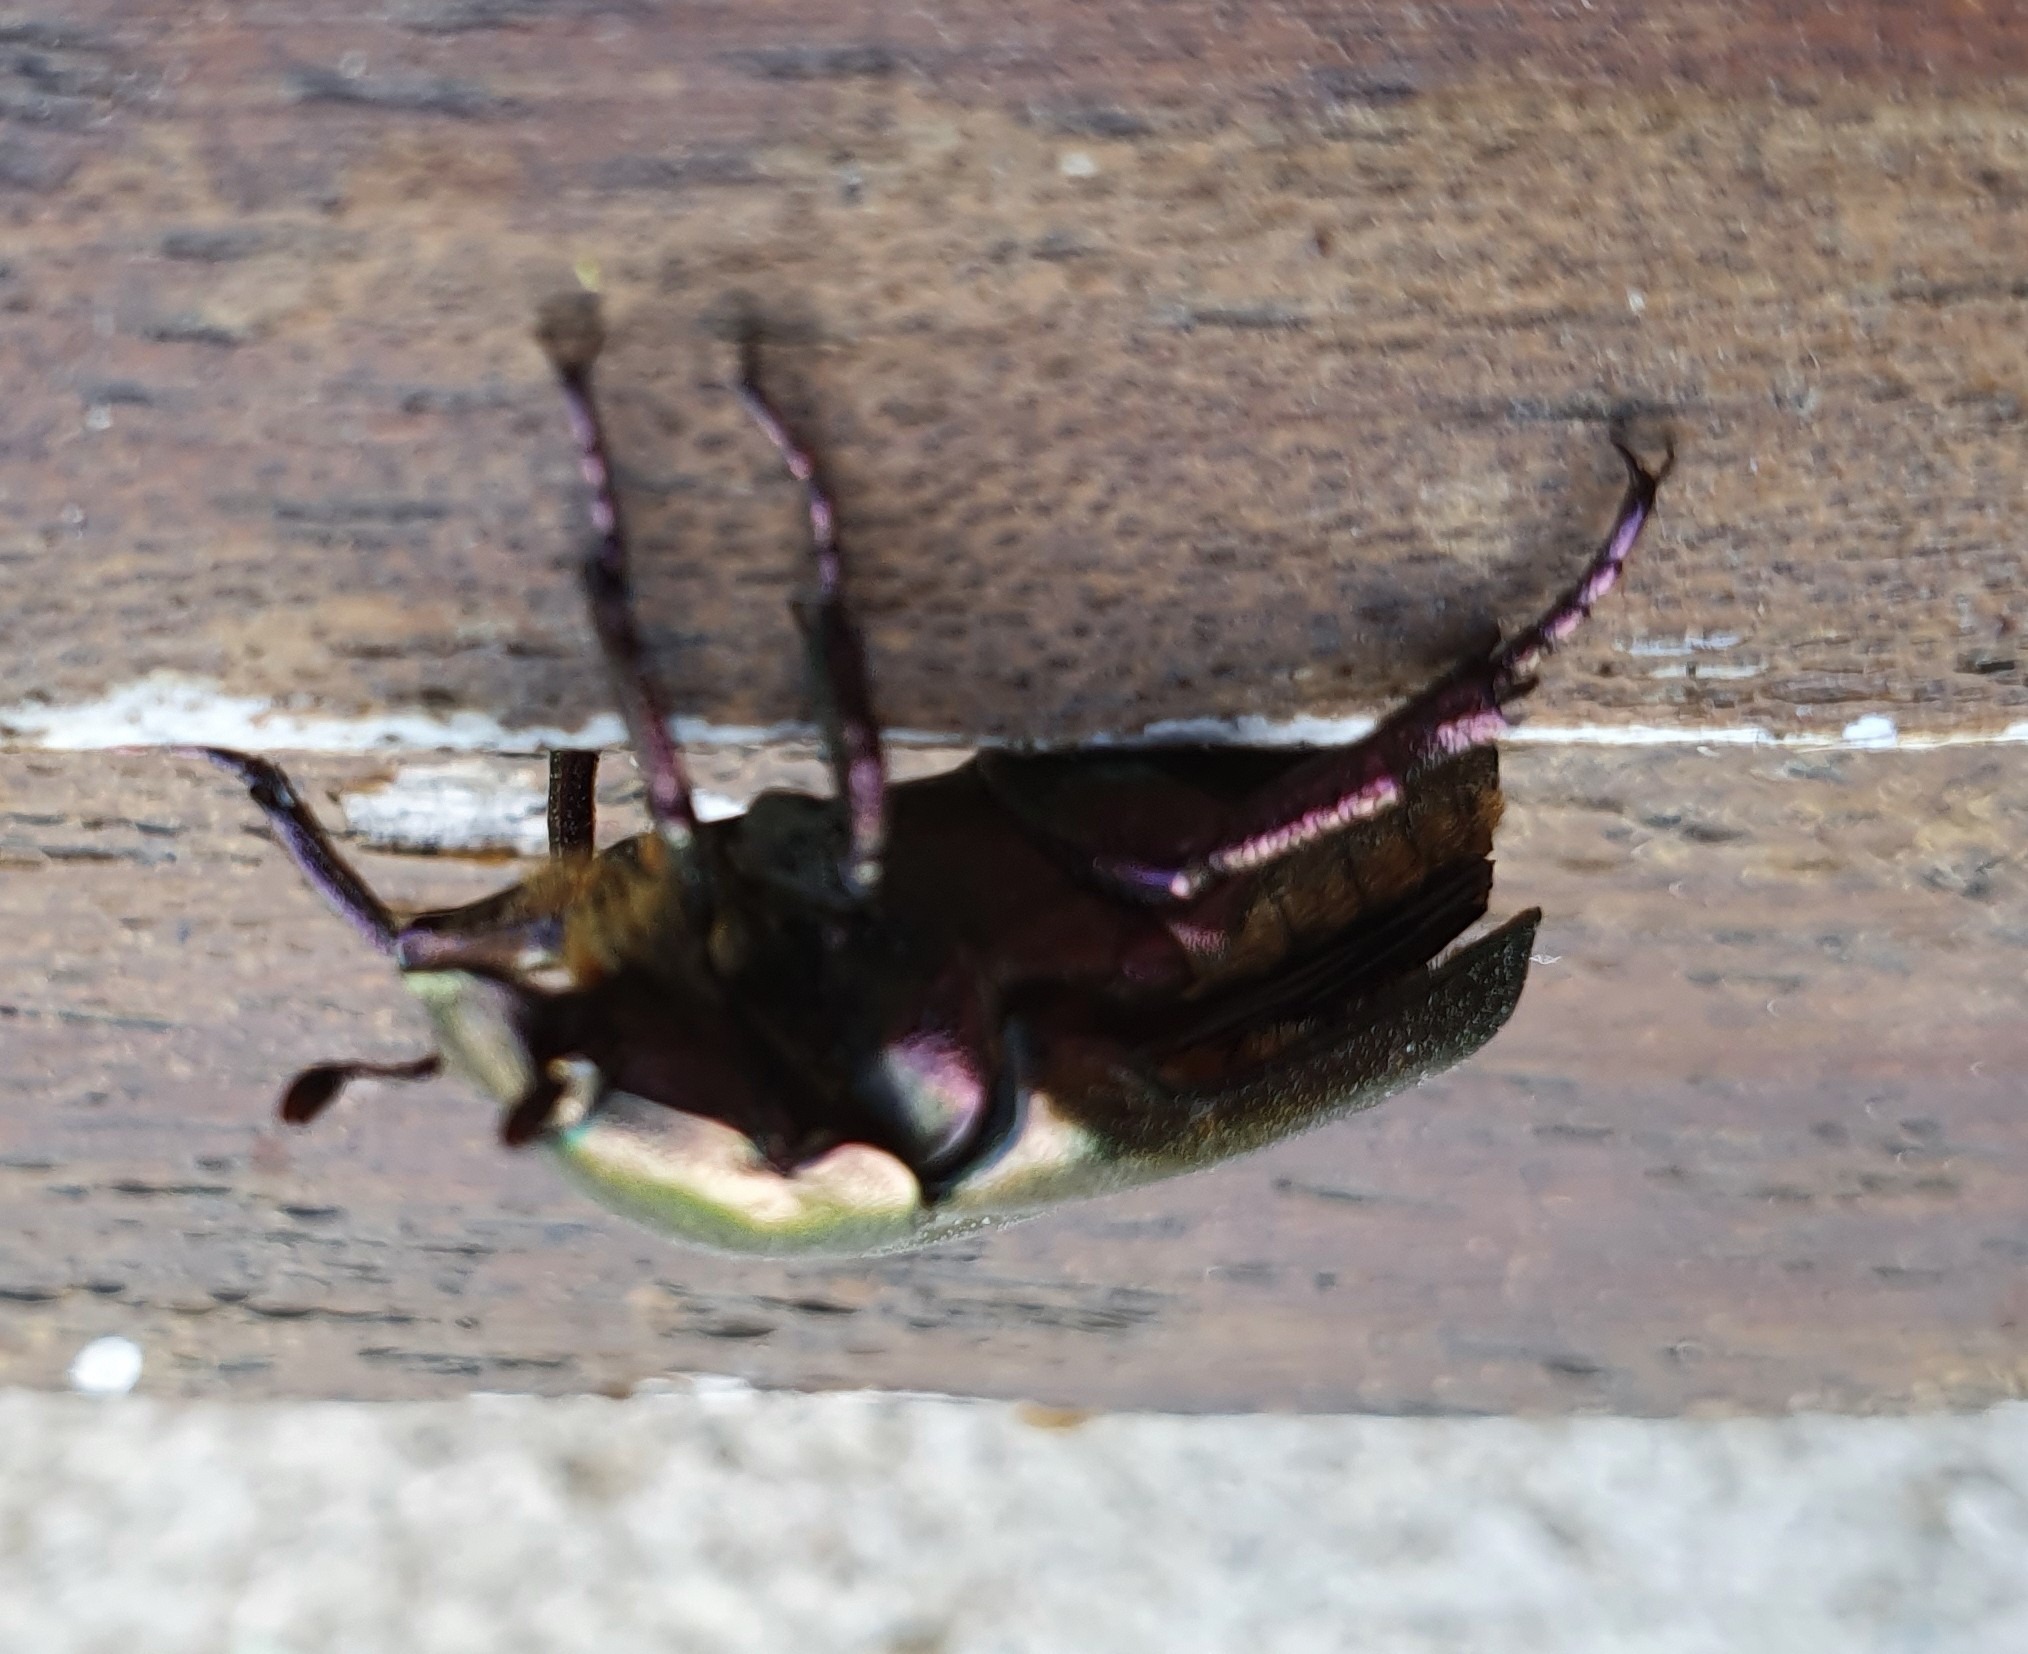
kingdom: Animalia
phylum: Arthropoda
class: Insecta
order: Coleoptera
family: Scarabaeidae
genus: Protaetia
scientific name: Protaetia cuprea
